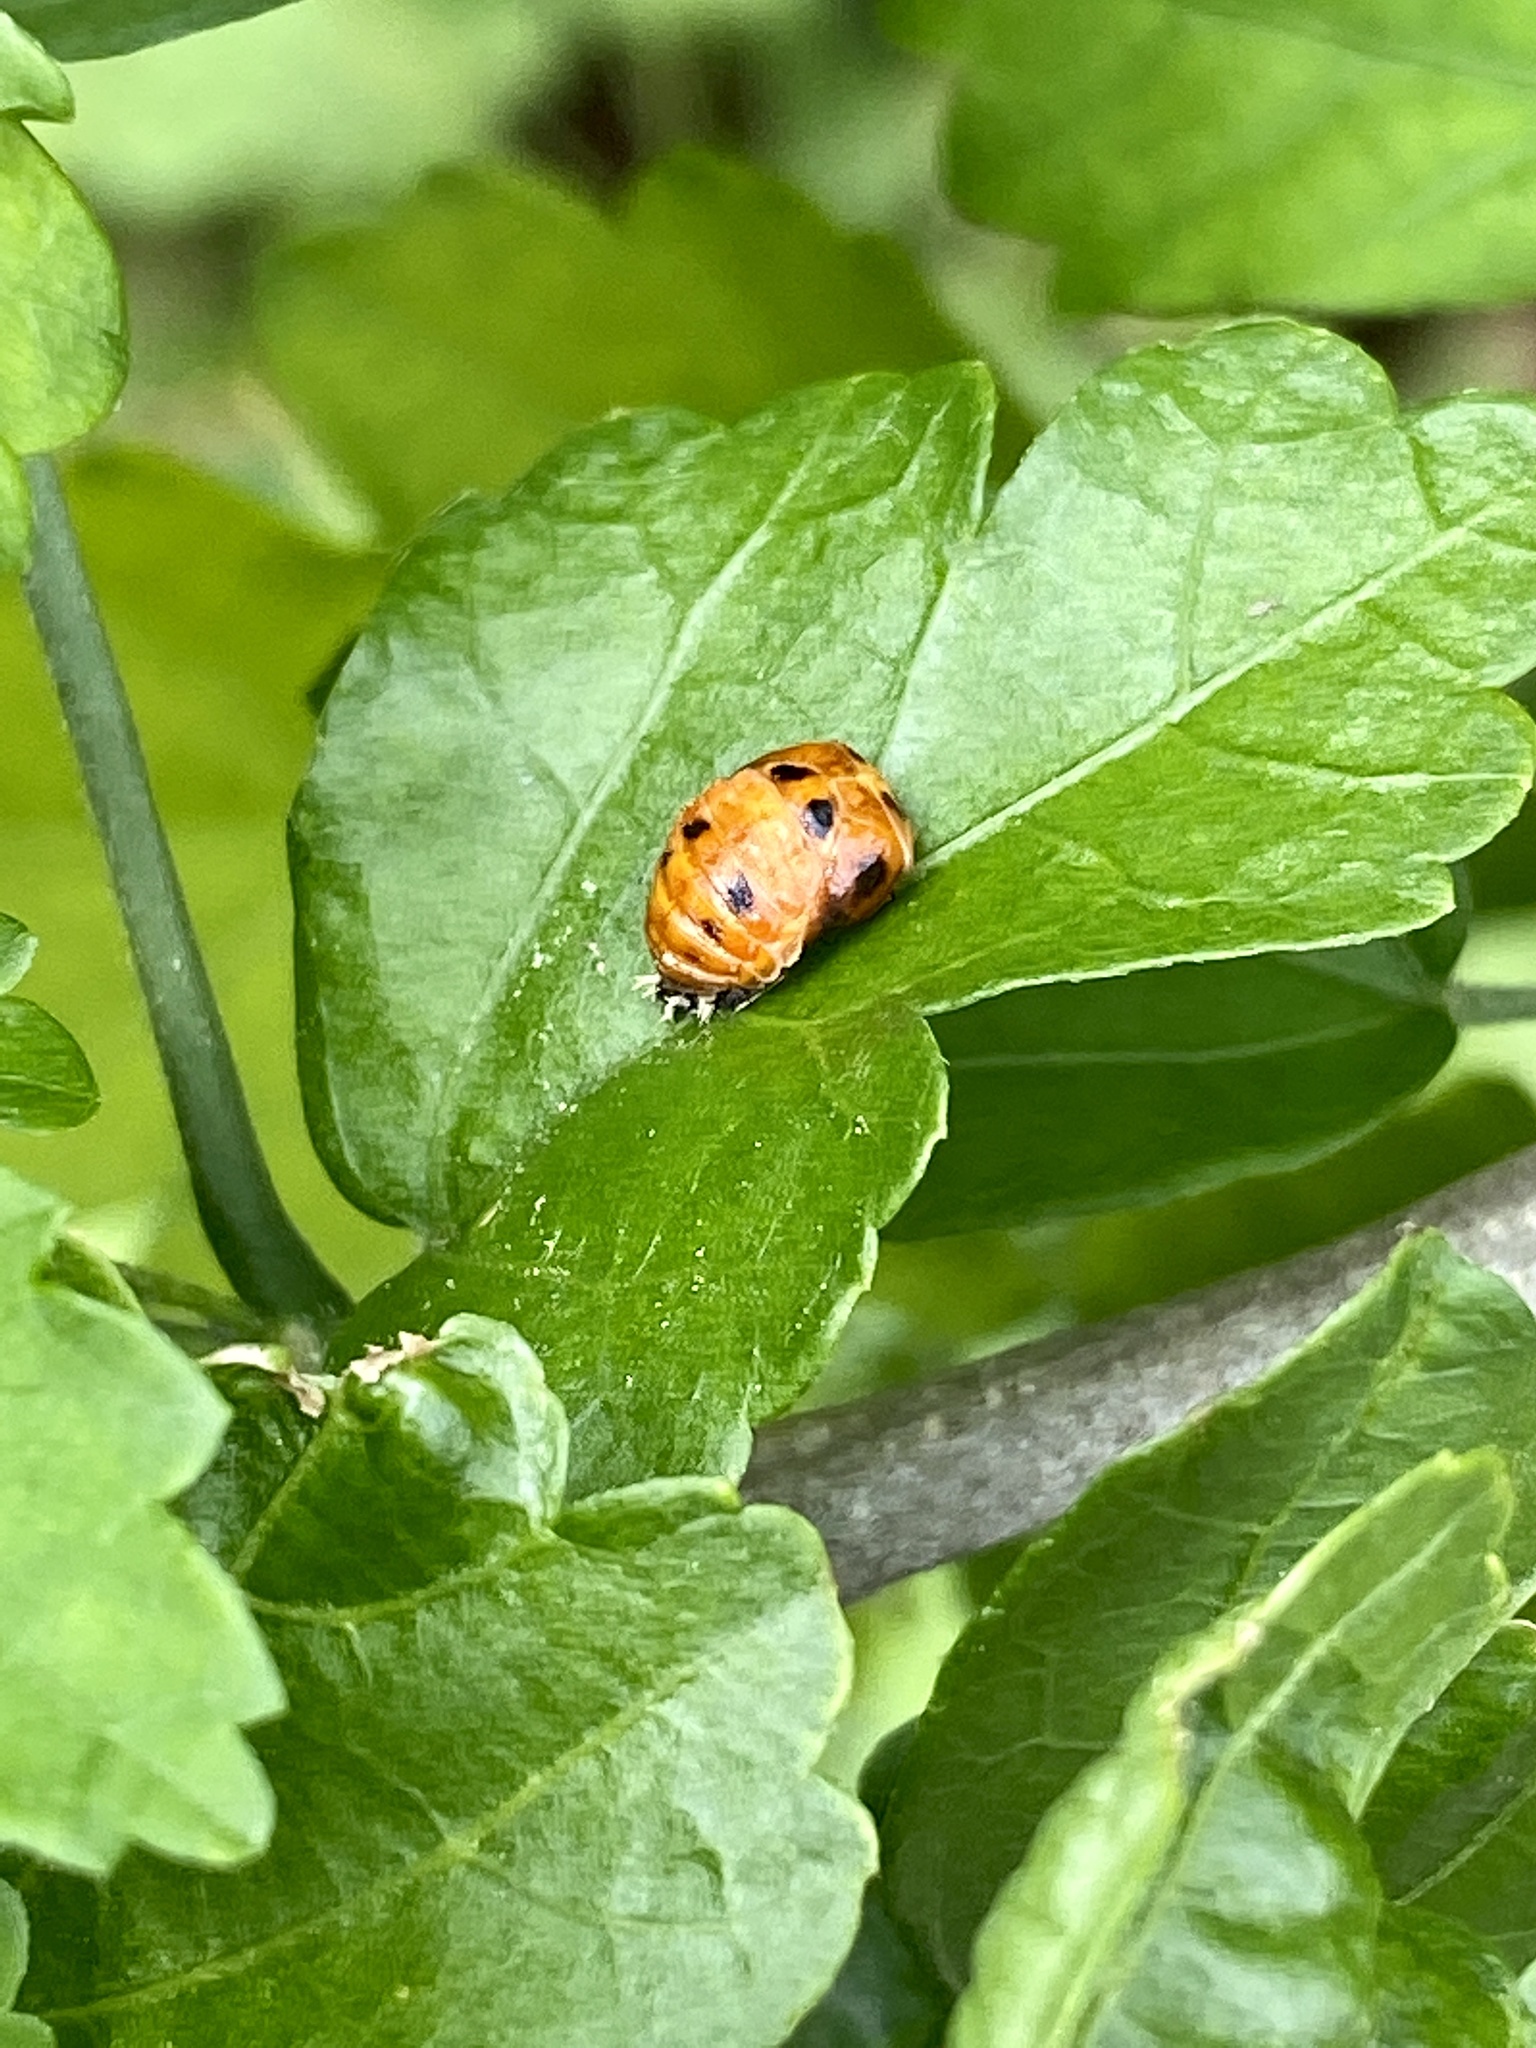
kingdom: Animalia
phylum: Arthropoda
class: Insecta
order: Coleoptera
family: Coccinellidae
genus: Harmonia
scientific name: Harmonia axyridis
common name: Harlequin ladybird
